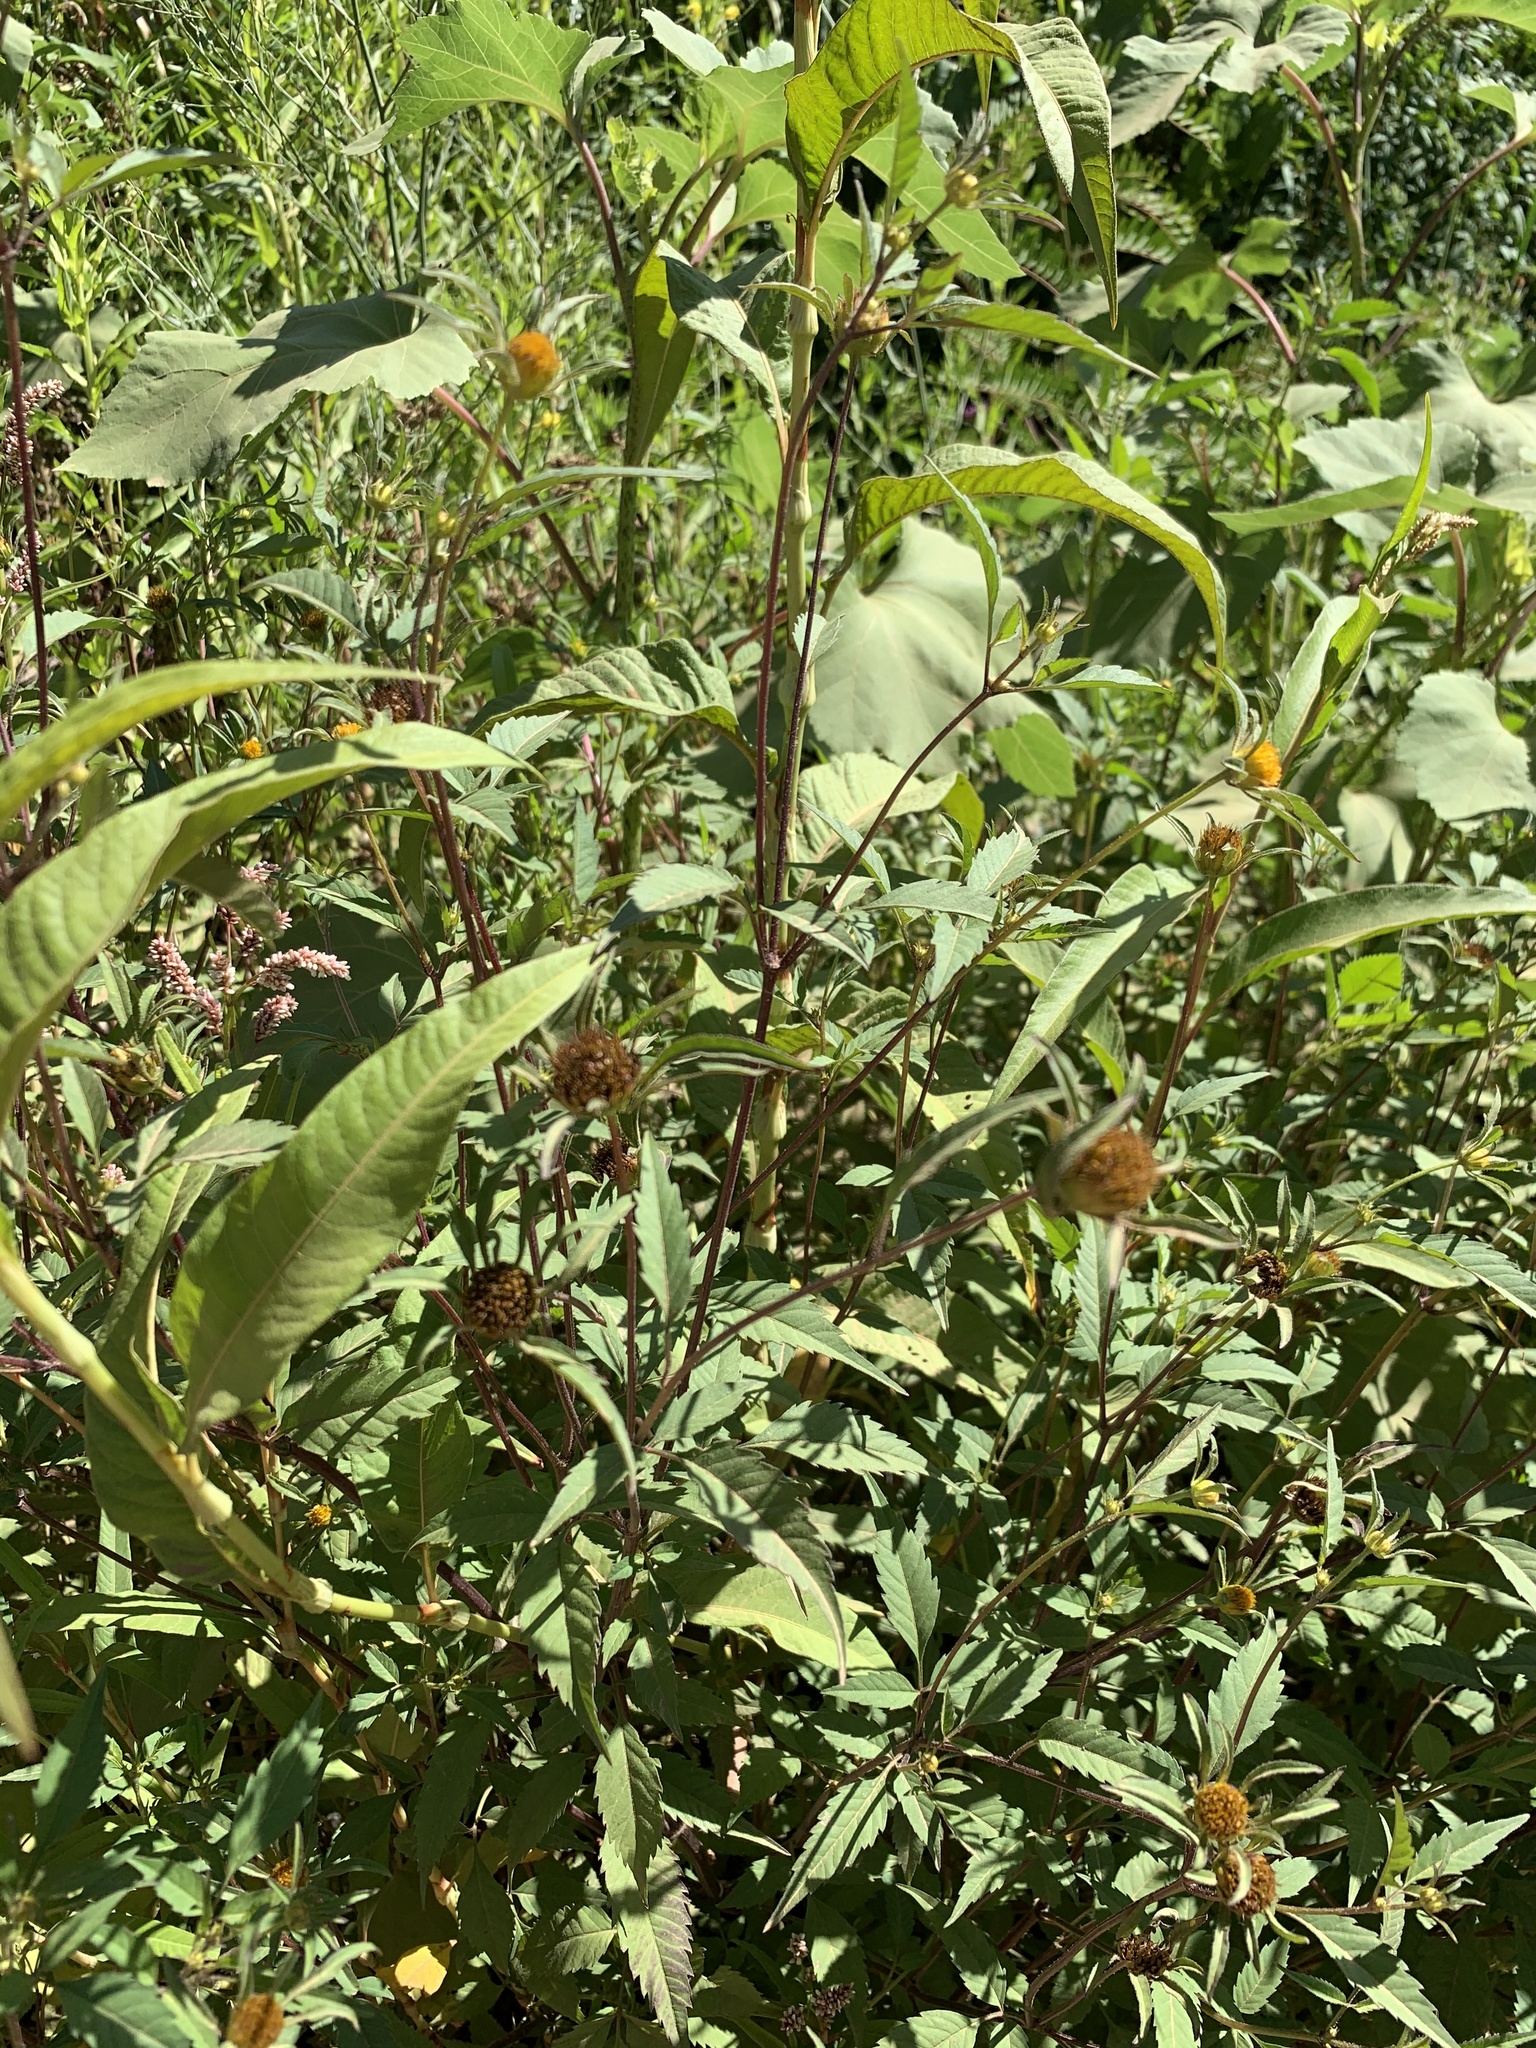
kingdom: Plantae
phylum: Tracheophyta
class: Magnoliopsida
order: Asterales
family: Asteraceae
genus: Bidens
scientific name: Bidens frondosa
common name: Beggarticks
